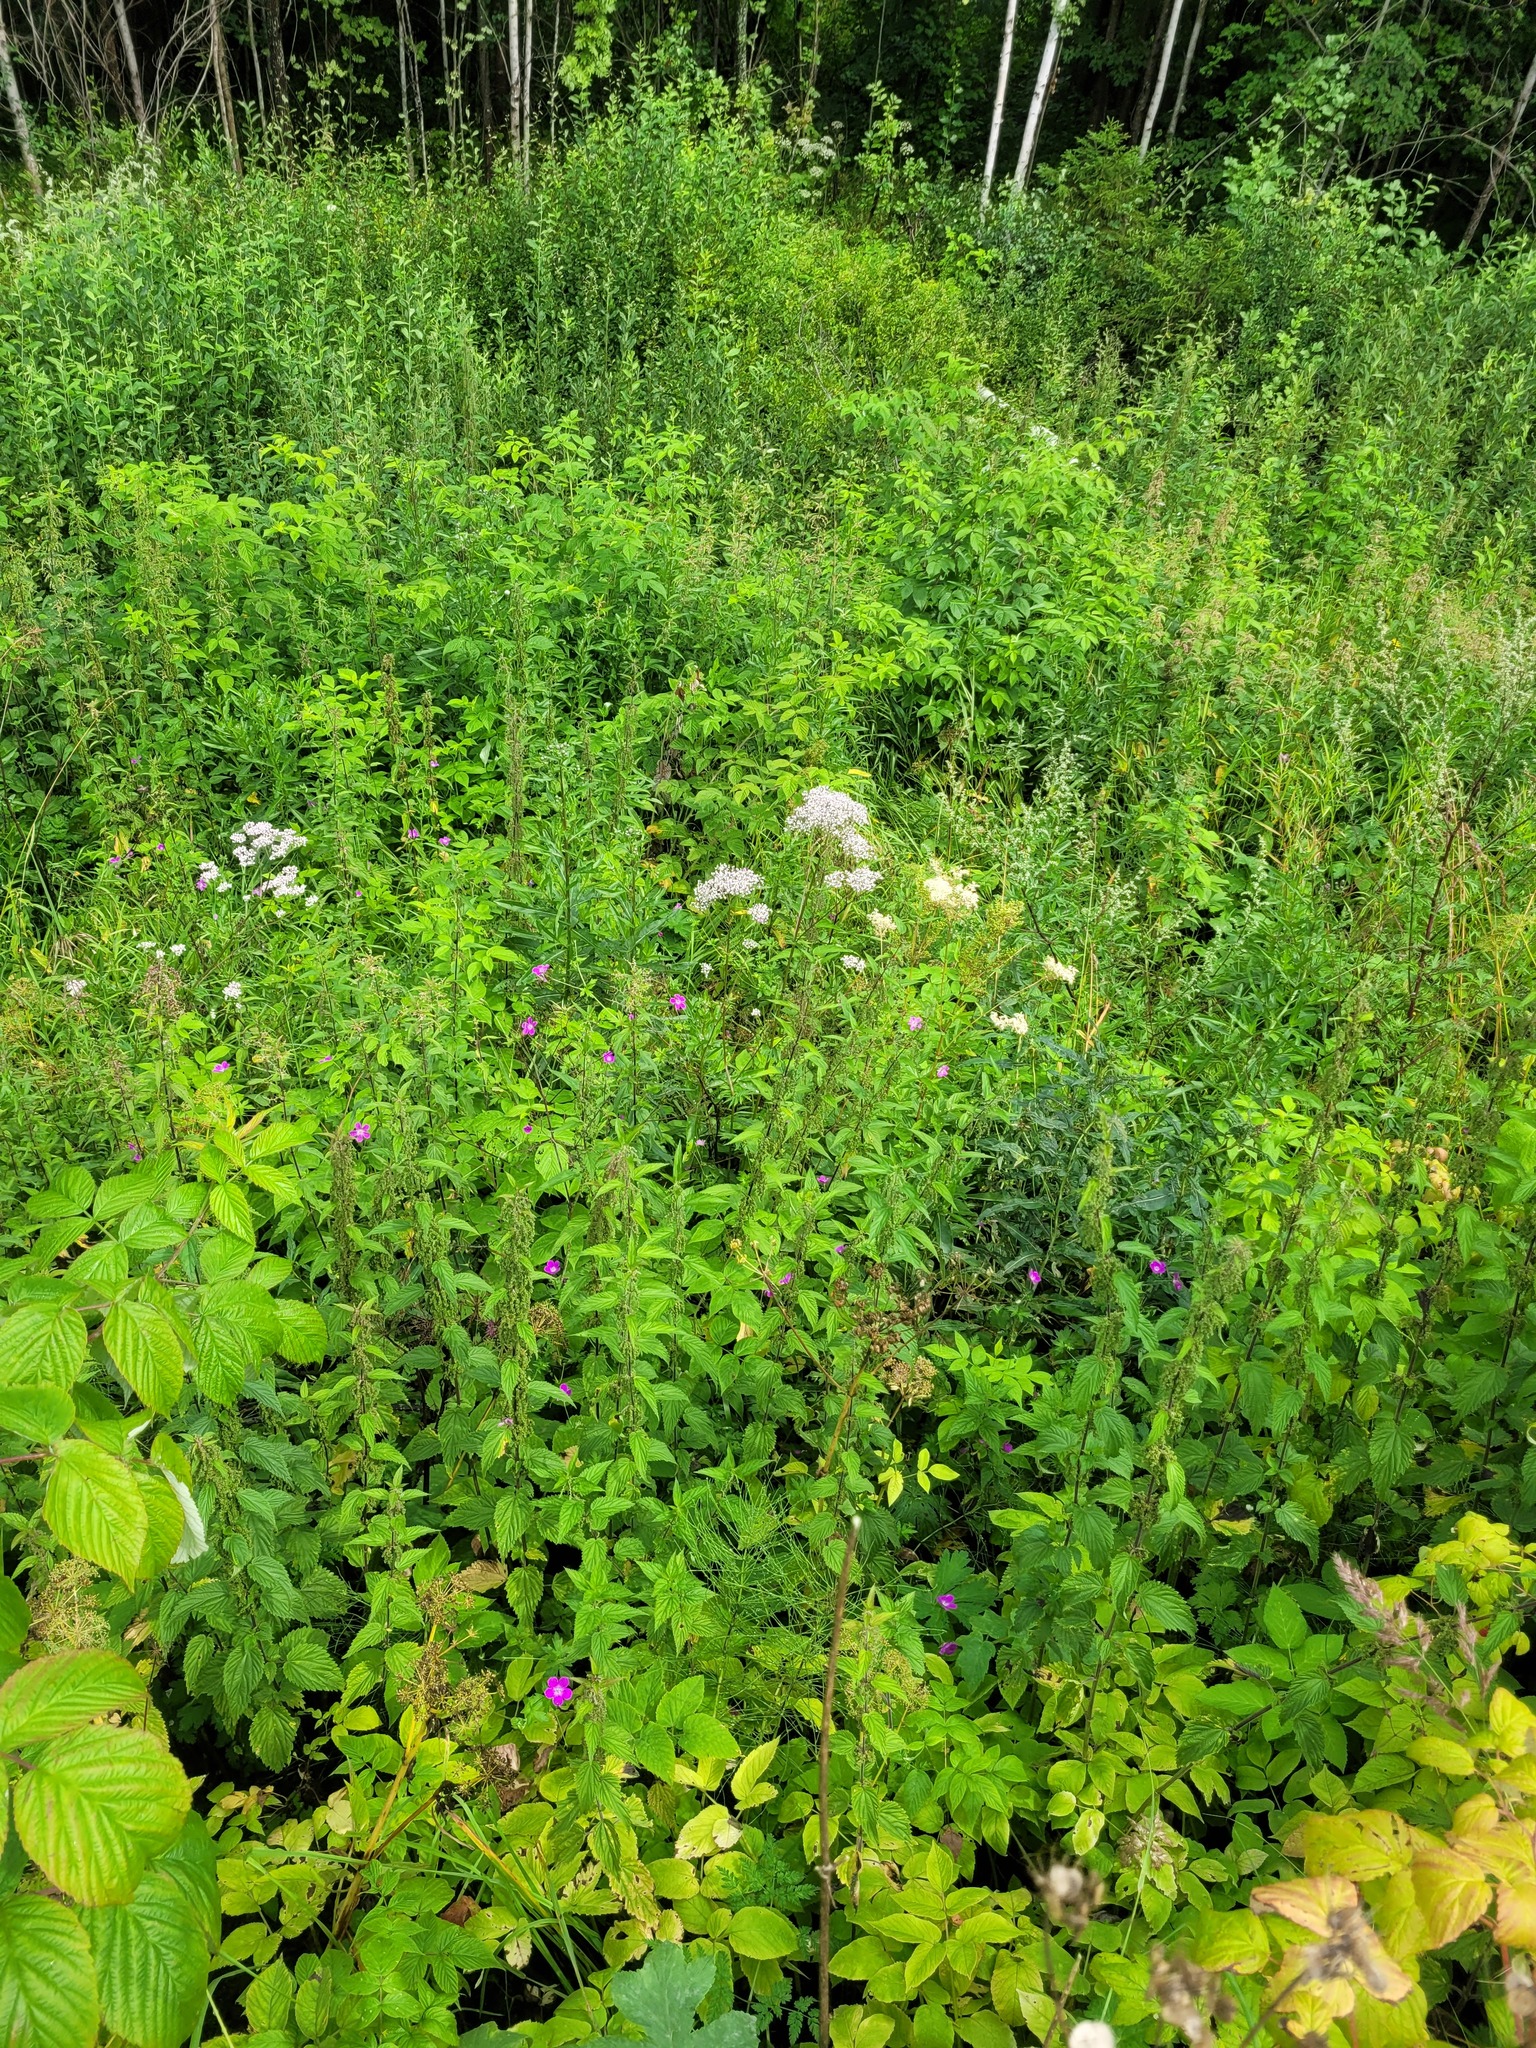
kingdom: Plantae
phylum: Tracheophyta
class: Magnoliopsida
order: Geraniales
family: Geraniaceae
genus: Geranium
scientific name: Geranium palustre
